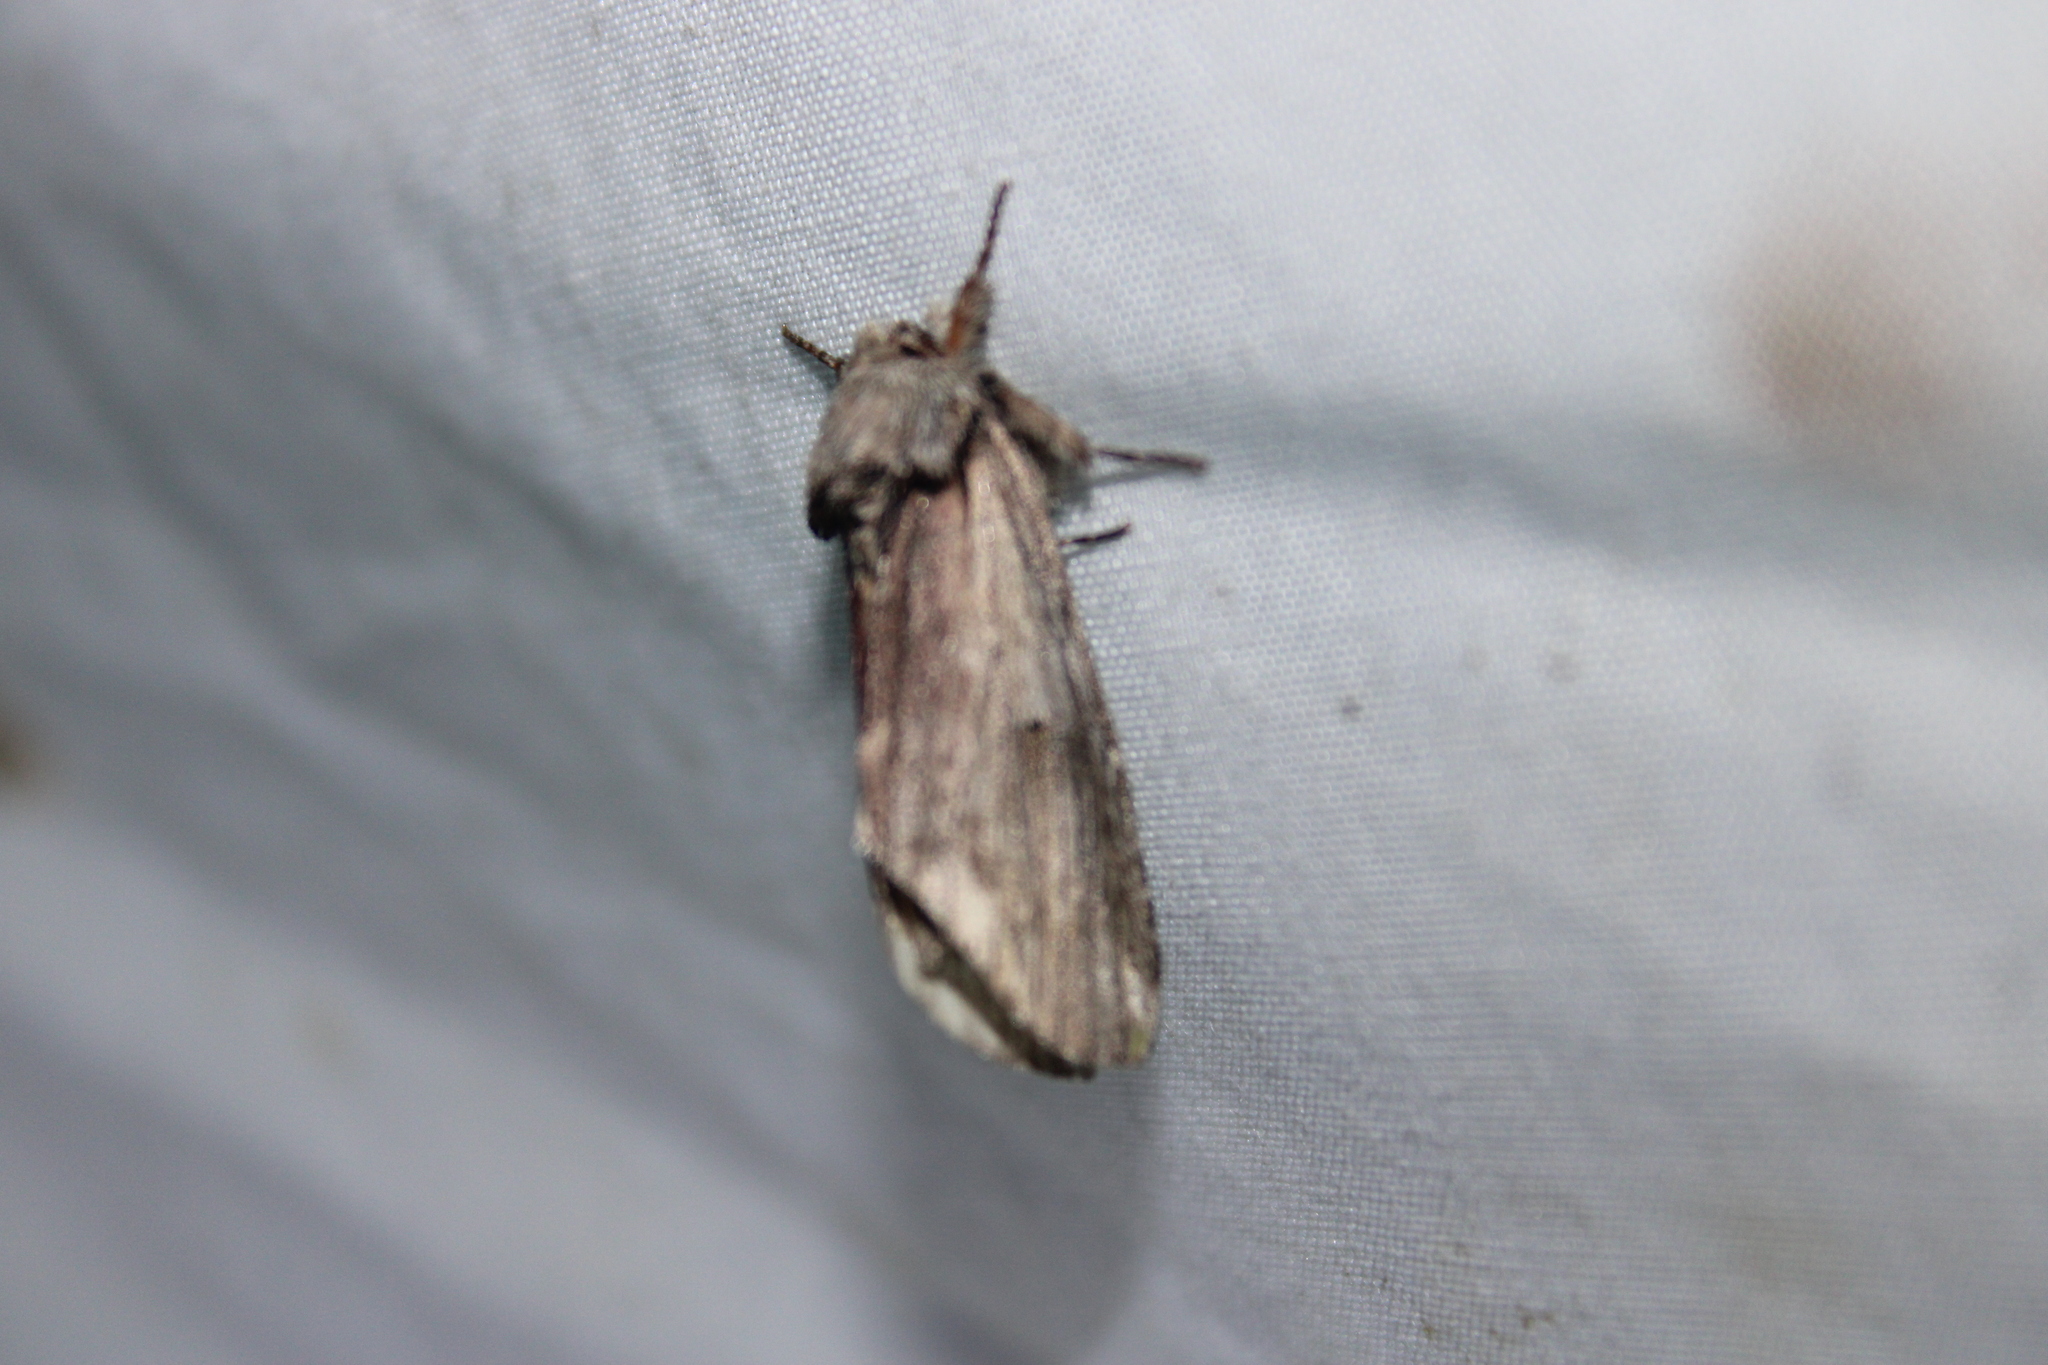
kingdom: Animalia
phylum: Arthropoda
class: Insecta
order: Lepidoptera
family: Notodontidae
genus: Schizura
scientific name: Schizura
